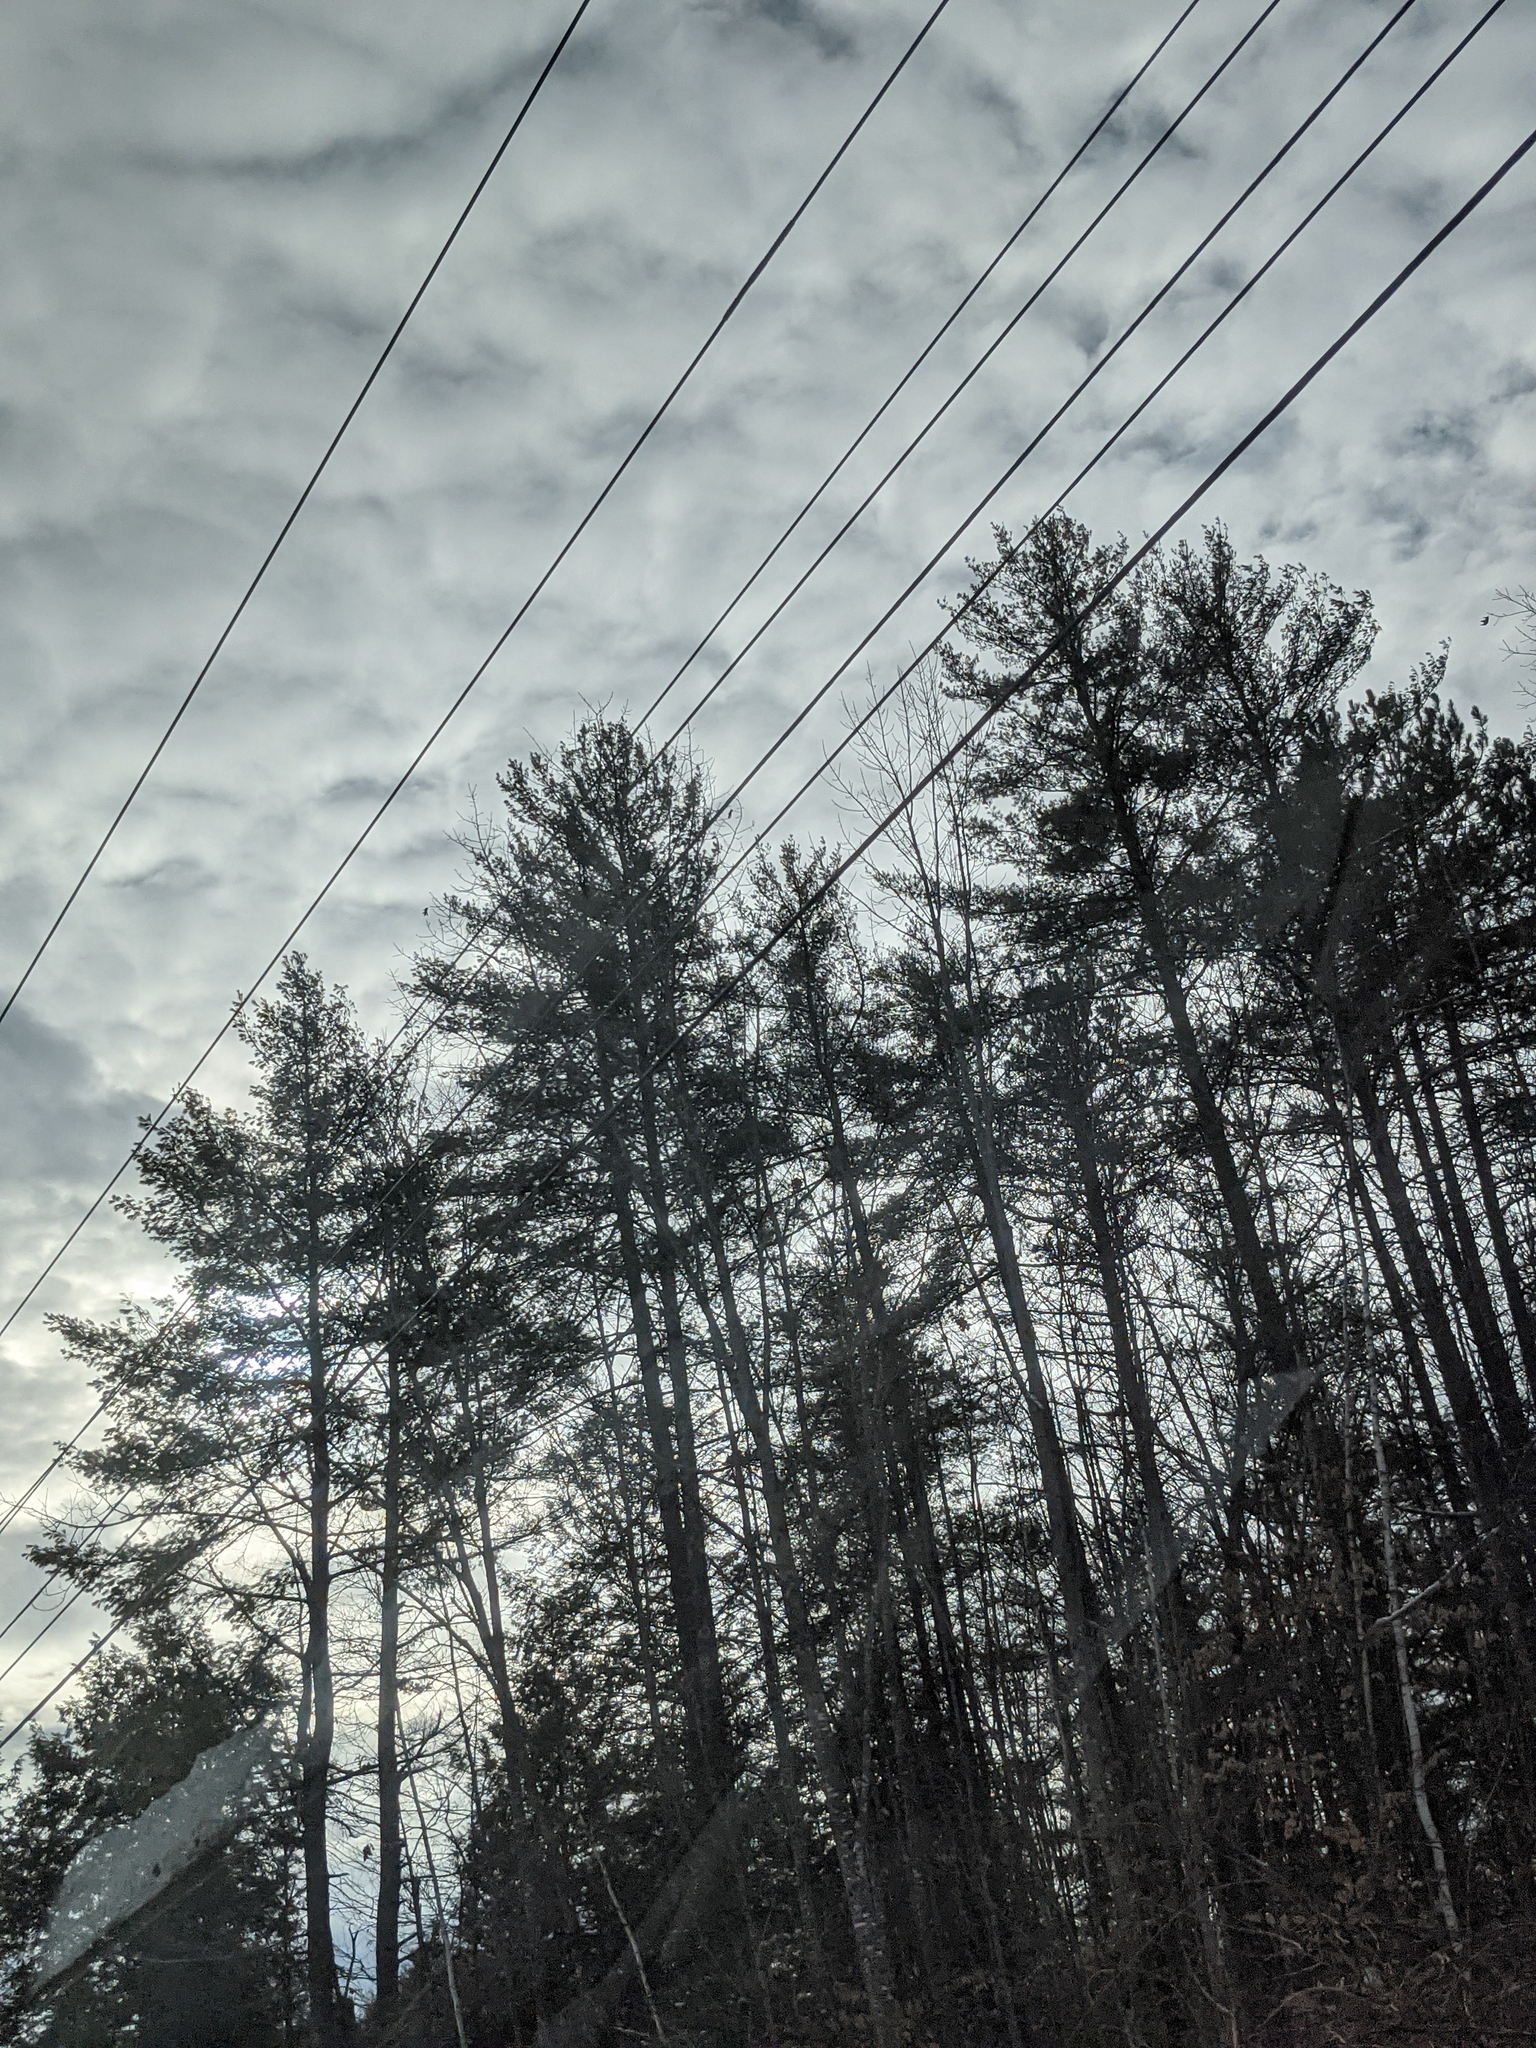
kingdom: Plantae
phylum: Tracheophyta
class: Pinopsida
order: Pinales
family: Pinaceae
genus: Pinus
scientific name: Pinus strobus
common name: Weymouth pine
